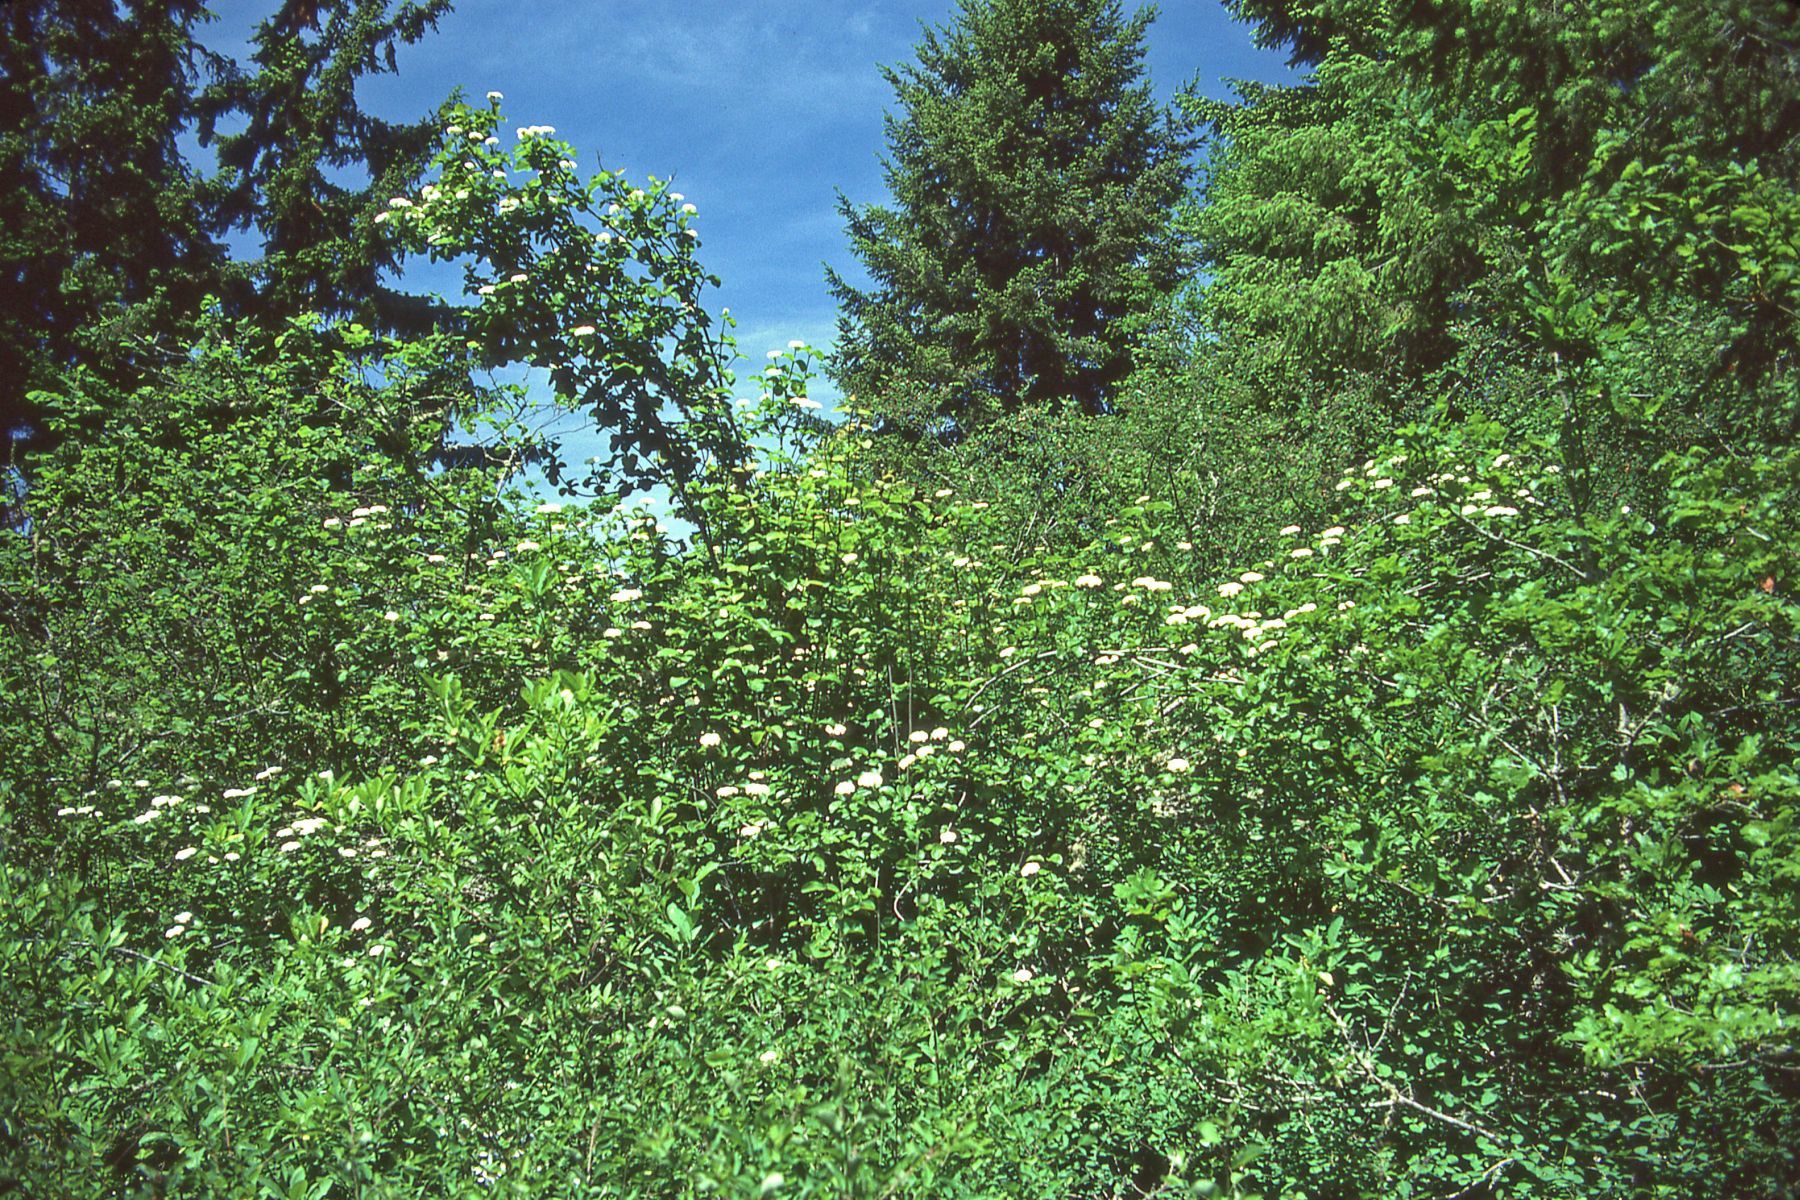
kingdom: Plantae
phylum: Tracheophyta
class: Magnoliopsida
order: Dipsacales
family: Viburnaceae
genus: Viburnum
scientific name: Viburnum ellipticum
